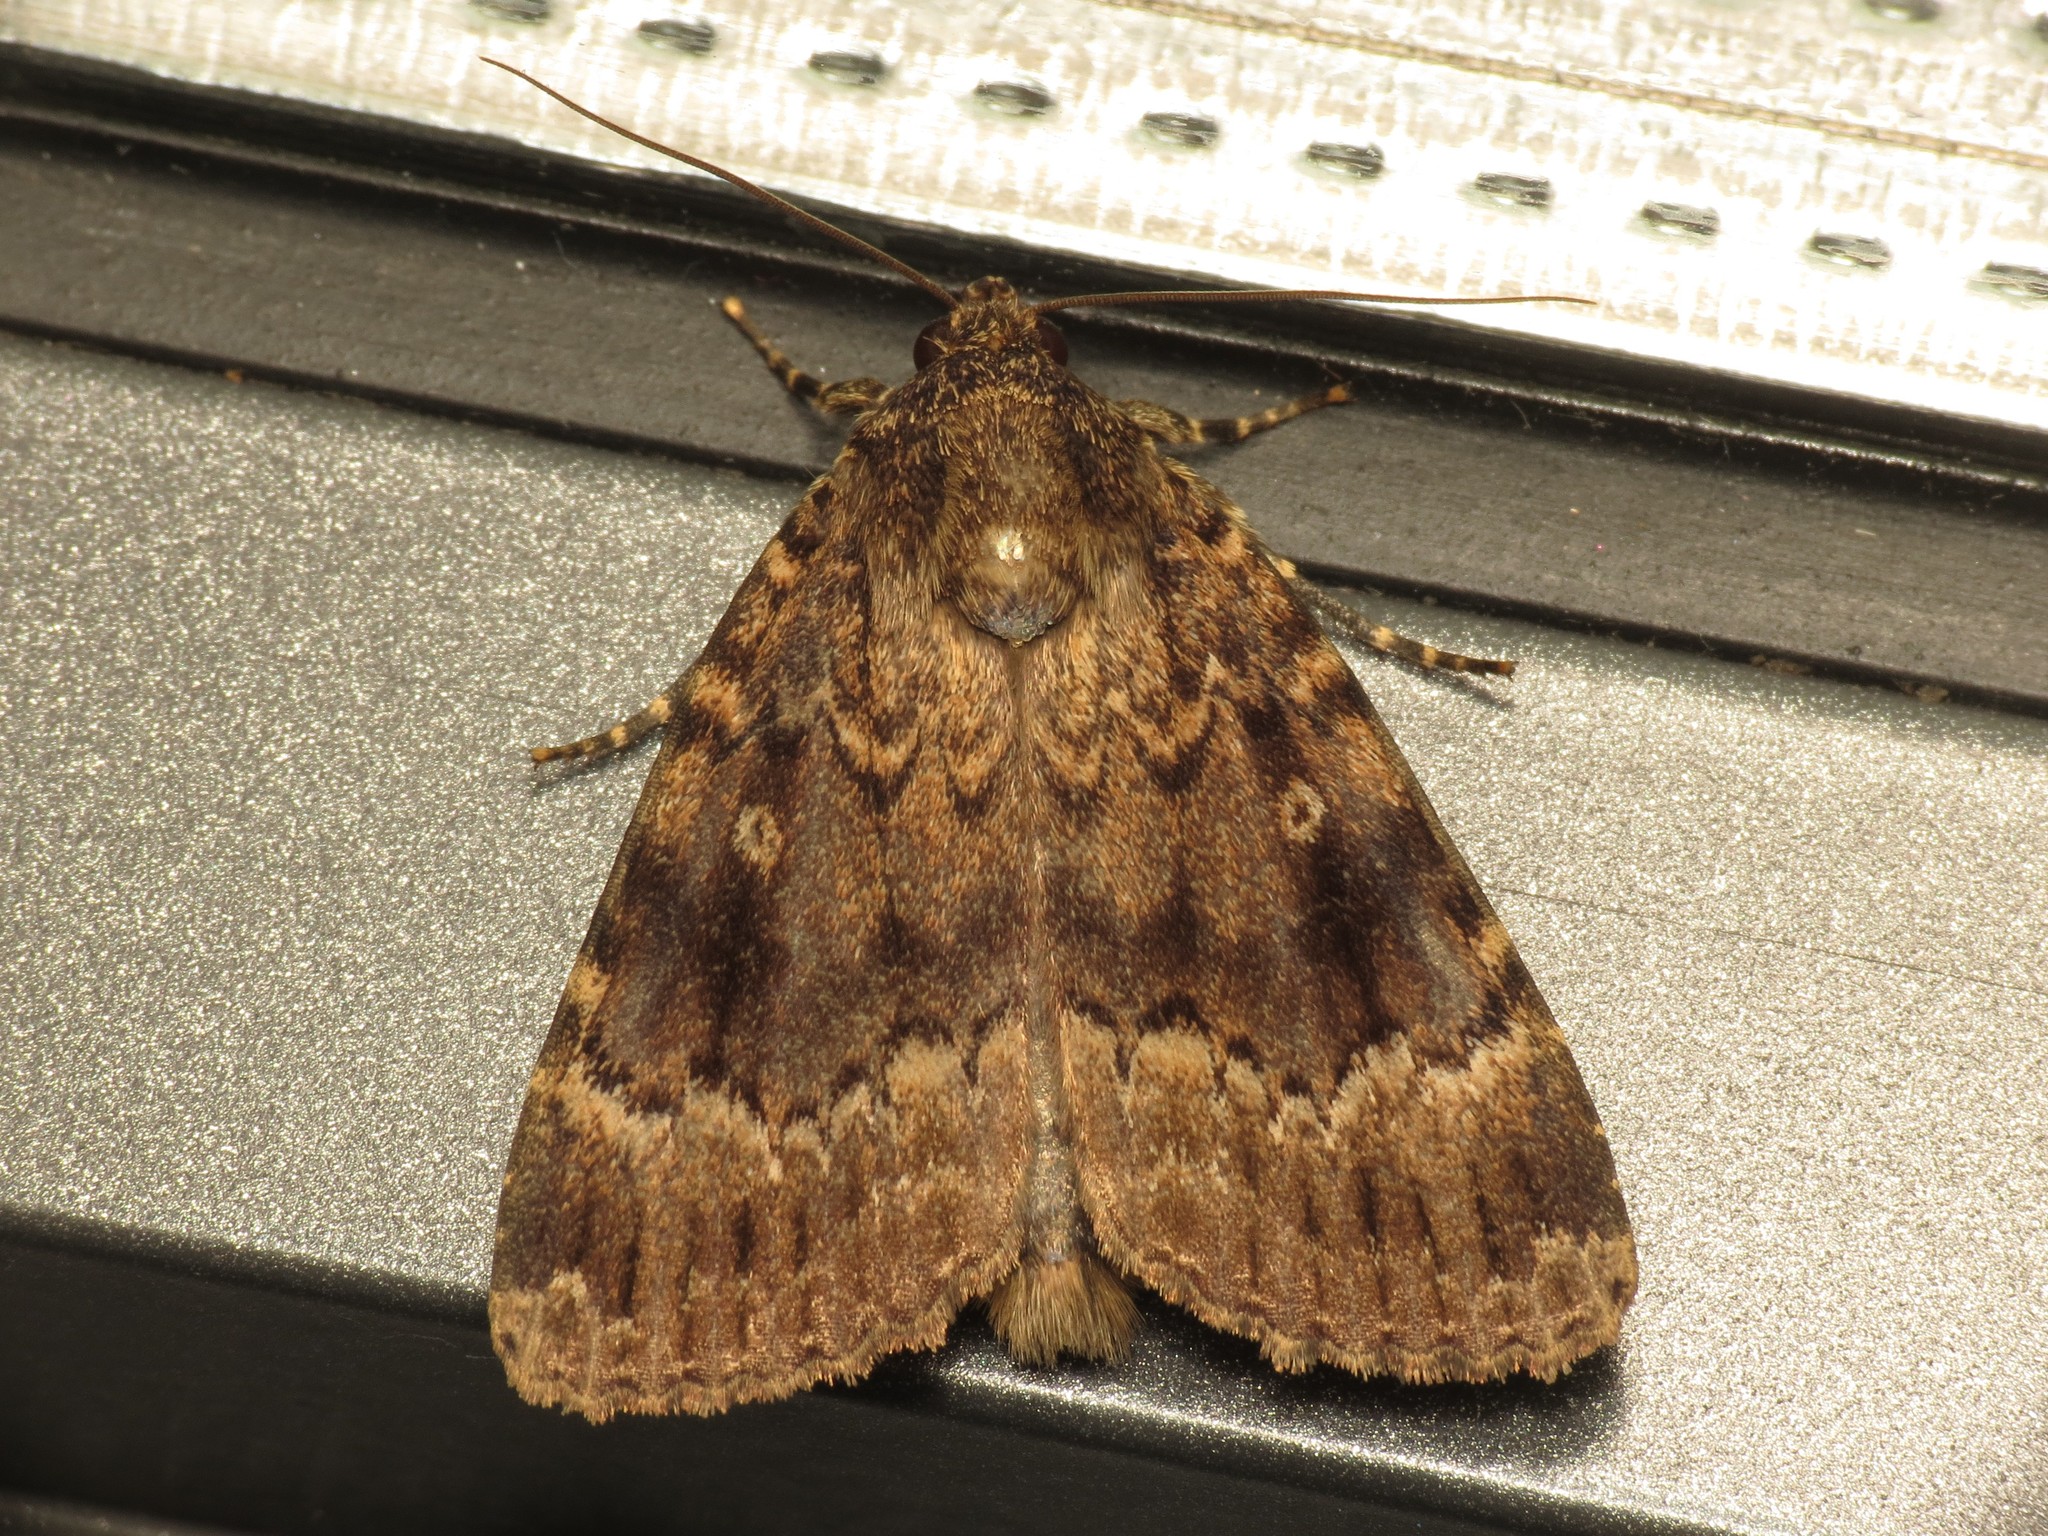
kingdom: Animalia
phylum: Arthropoda
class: Insecta
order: Lepidoptera
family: Noctuidae
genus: Amphipyra
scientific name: Amphipyra berbera
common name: Svensson's copper underwing
